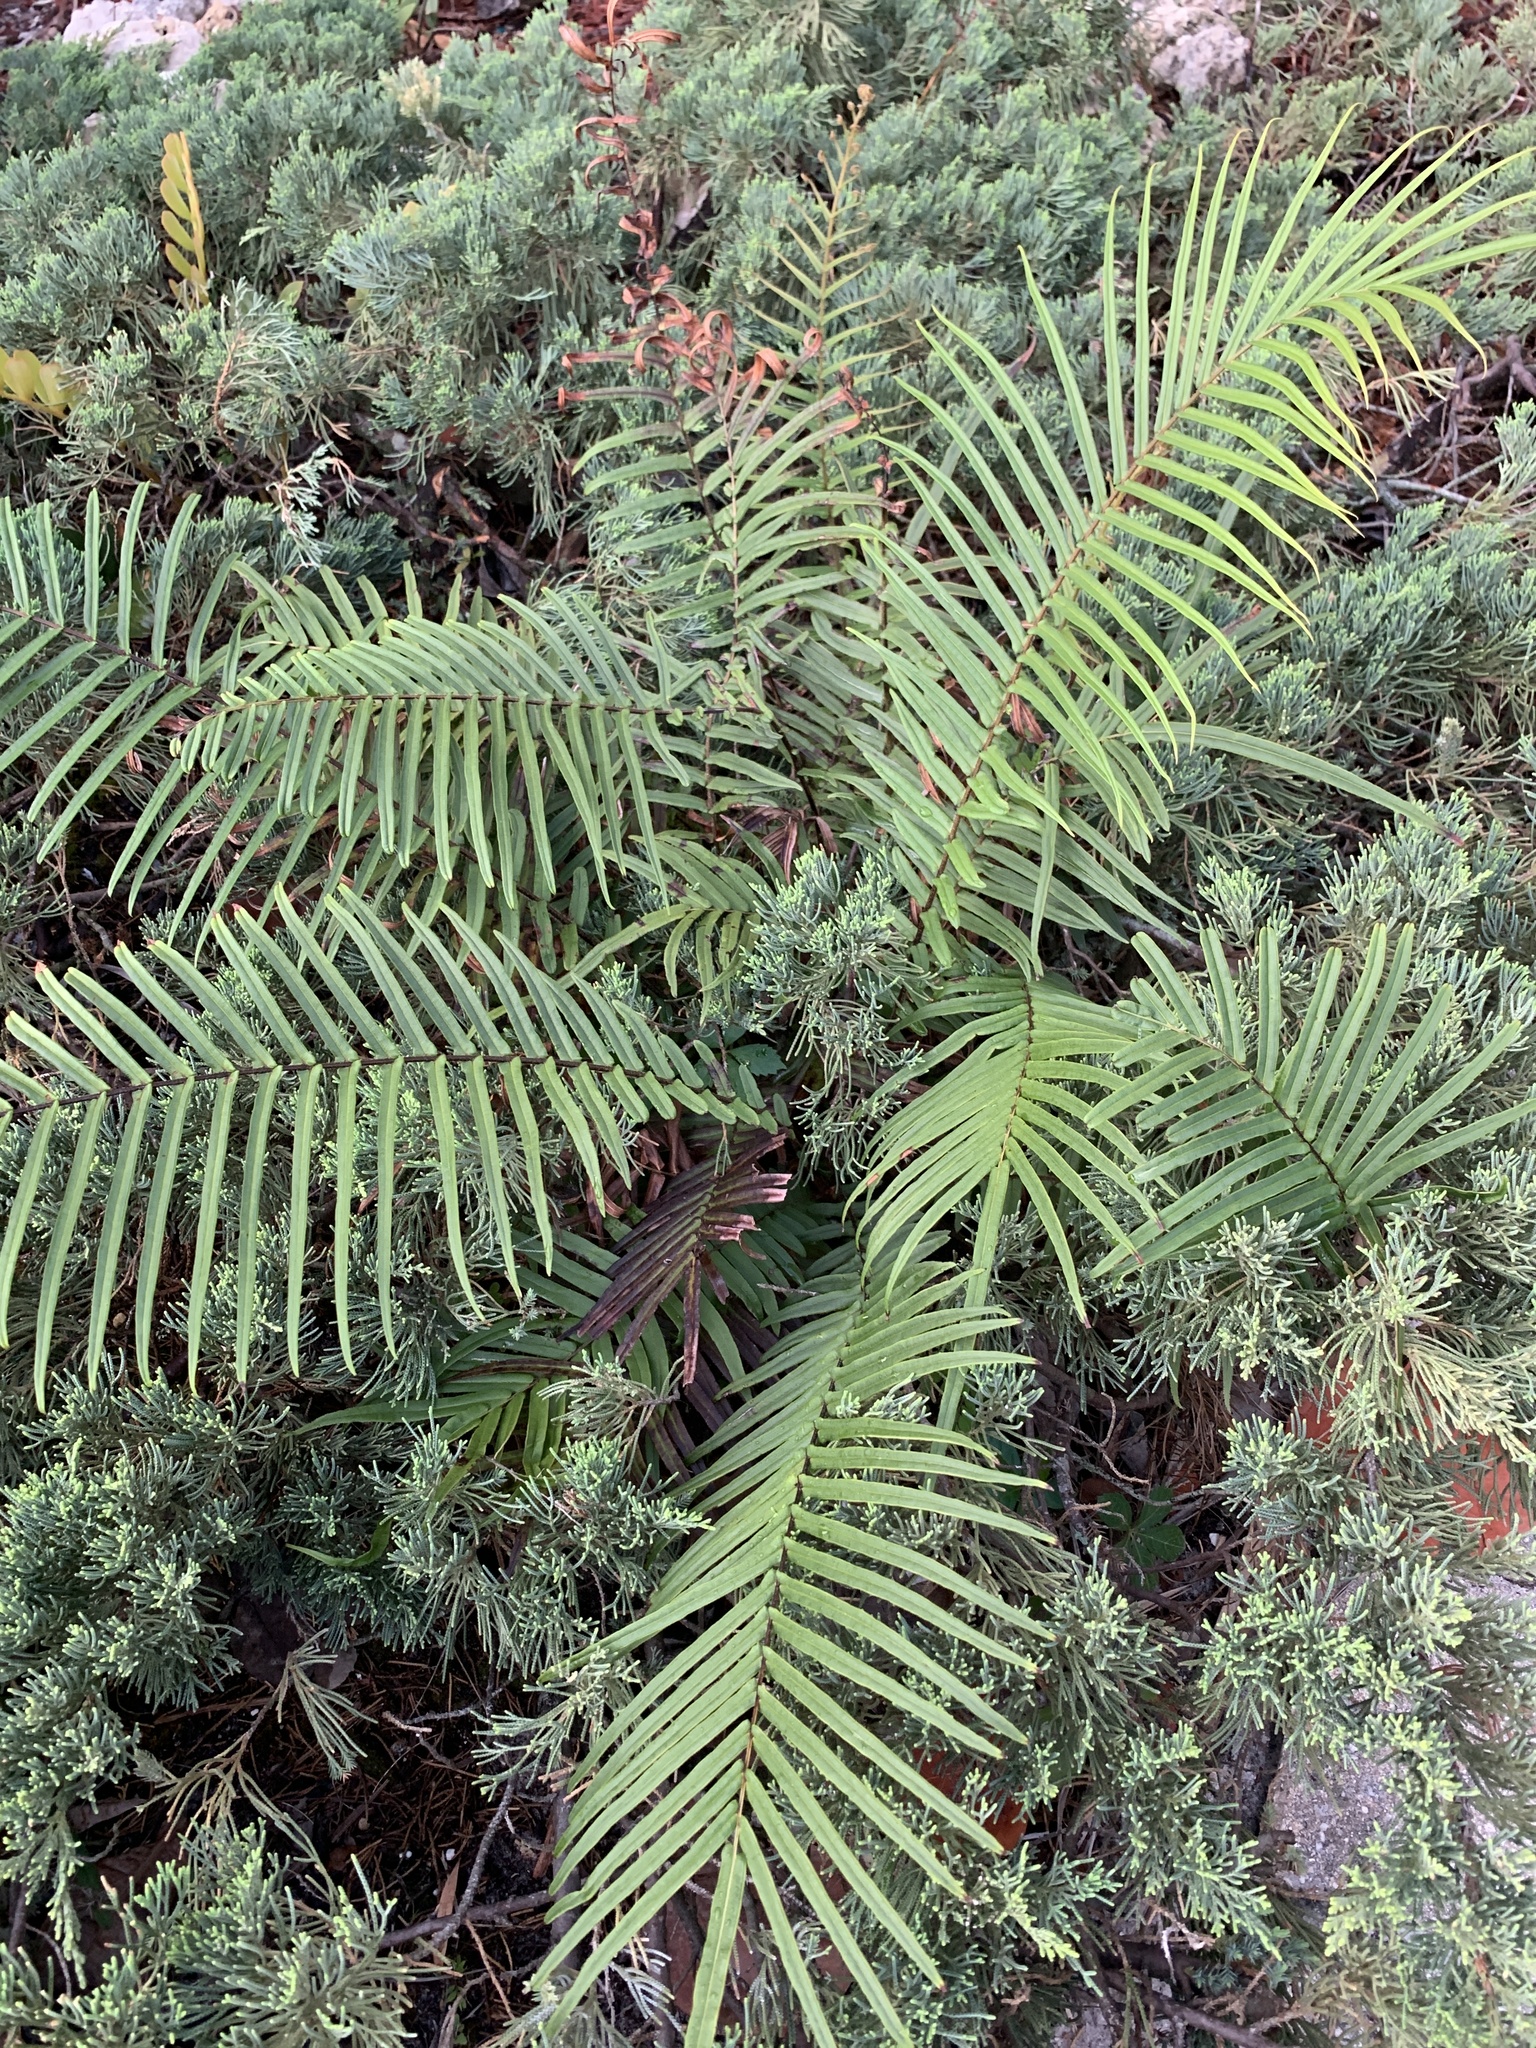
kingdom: Plantae
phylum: Tracheophyta
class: Polypodiopsida
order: Polypodiales
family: Pteridaceae
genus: Pteris
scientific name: Pteris vittata
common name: Ladder brake
